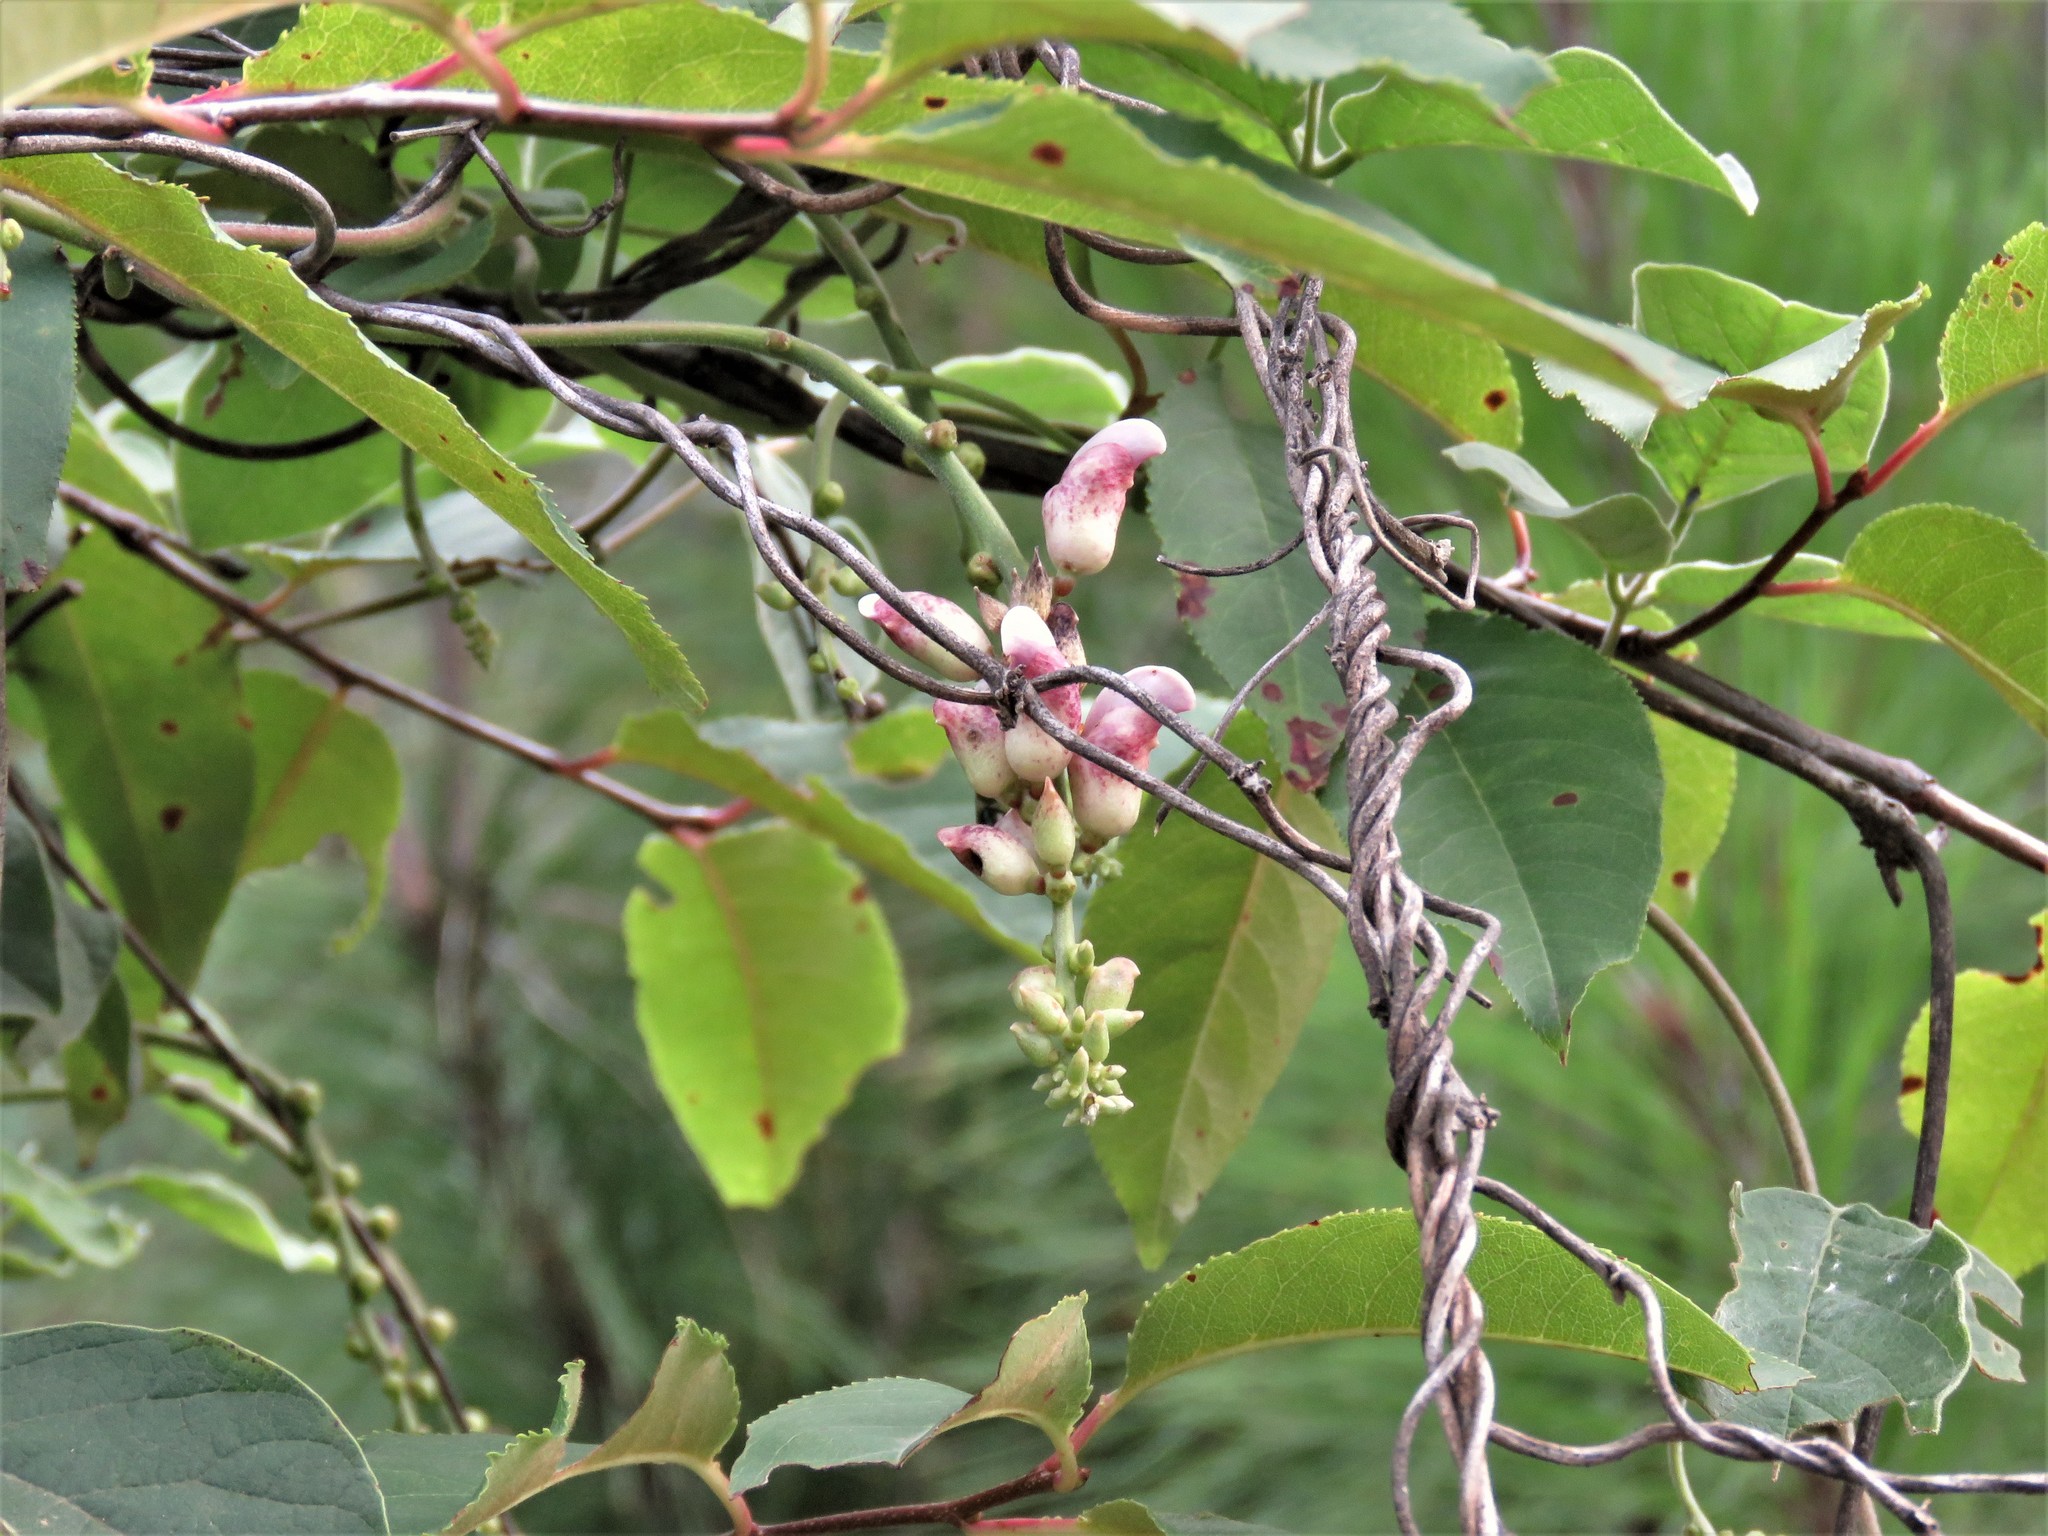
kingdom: Plantae
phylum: Tracheophyta
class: Magnoliopsida
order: Fabales
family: Fabaceae
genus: Canavalia
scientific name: Canavalia septentrionalis
